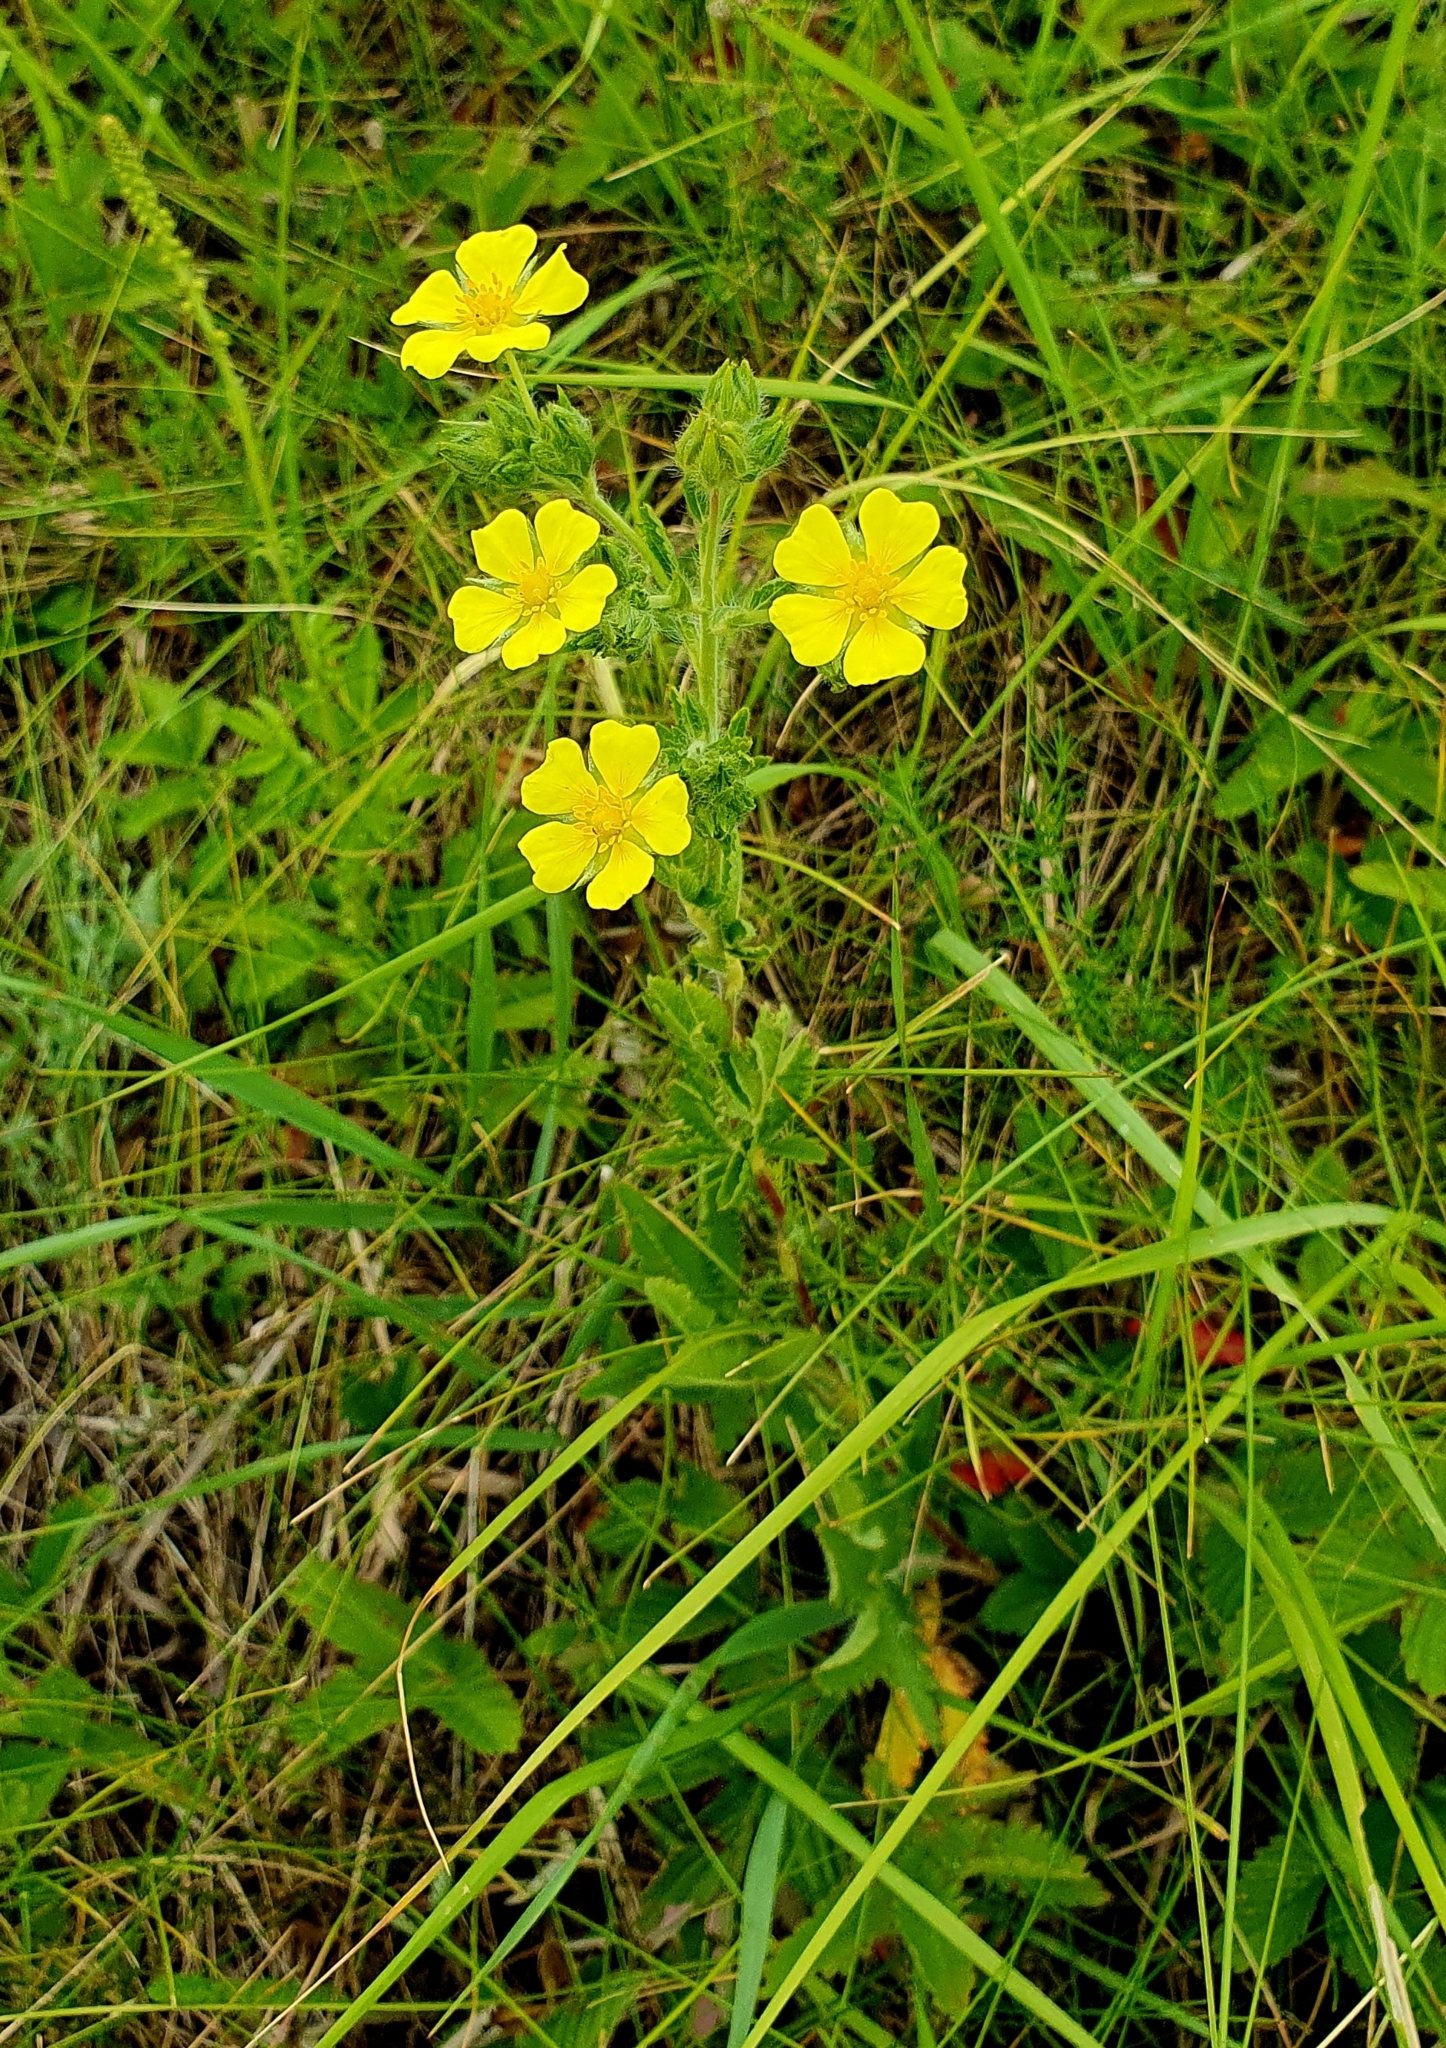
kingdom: Plantae
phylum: Tracheophyta
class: Magnoliopsida
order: Rosales
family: Rosaceae
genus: Potentilla
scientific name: Potentilla recta
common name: Sulphur cinquefoil
